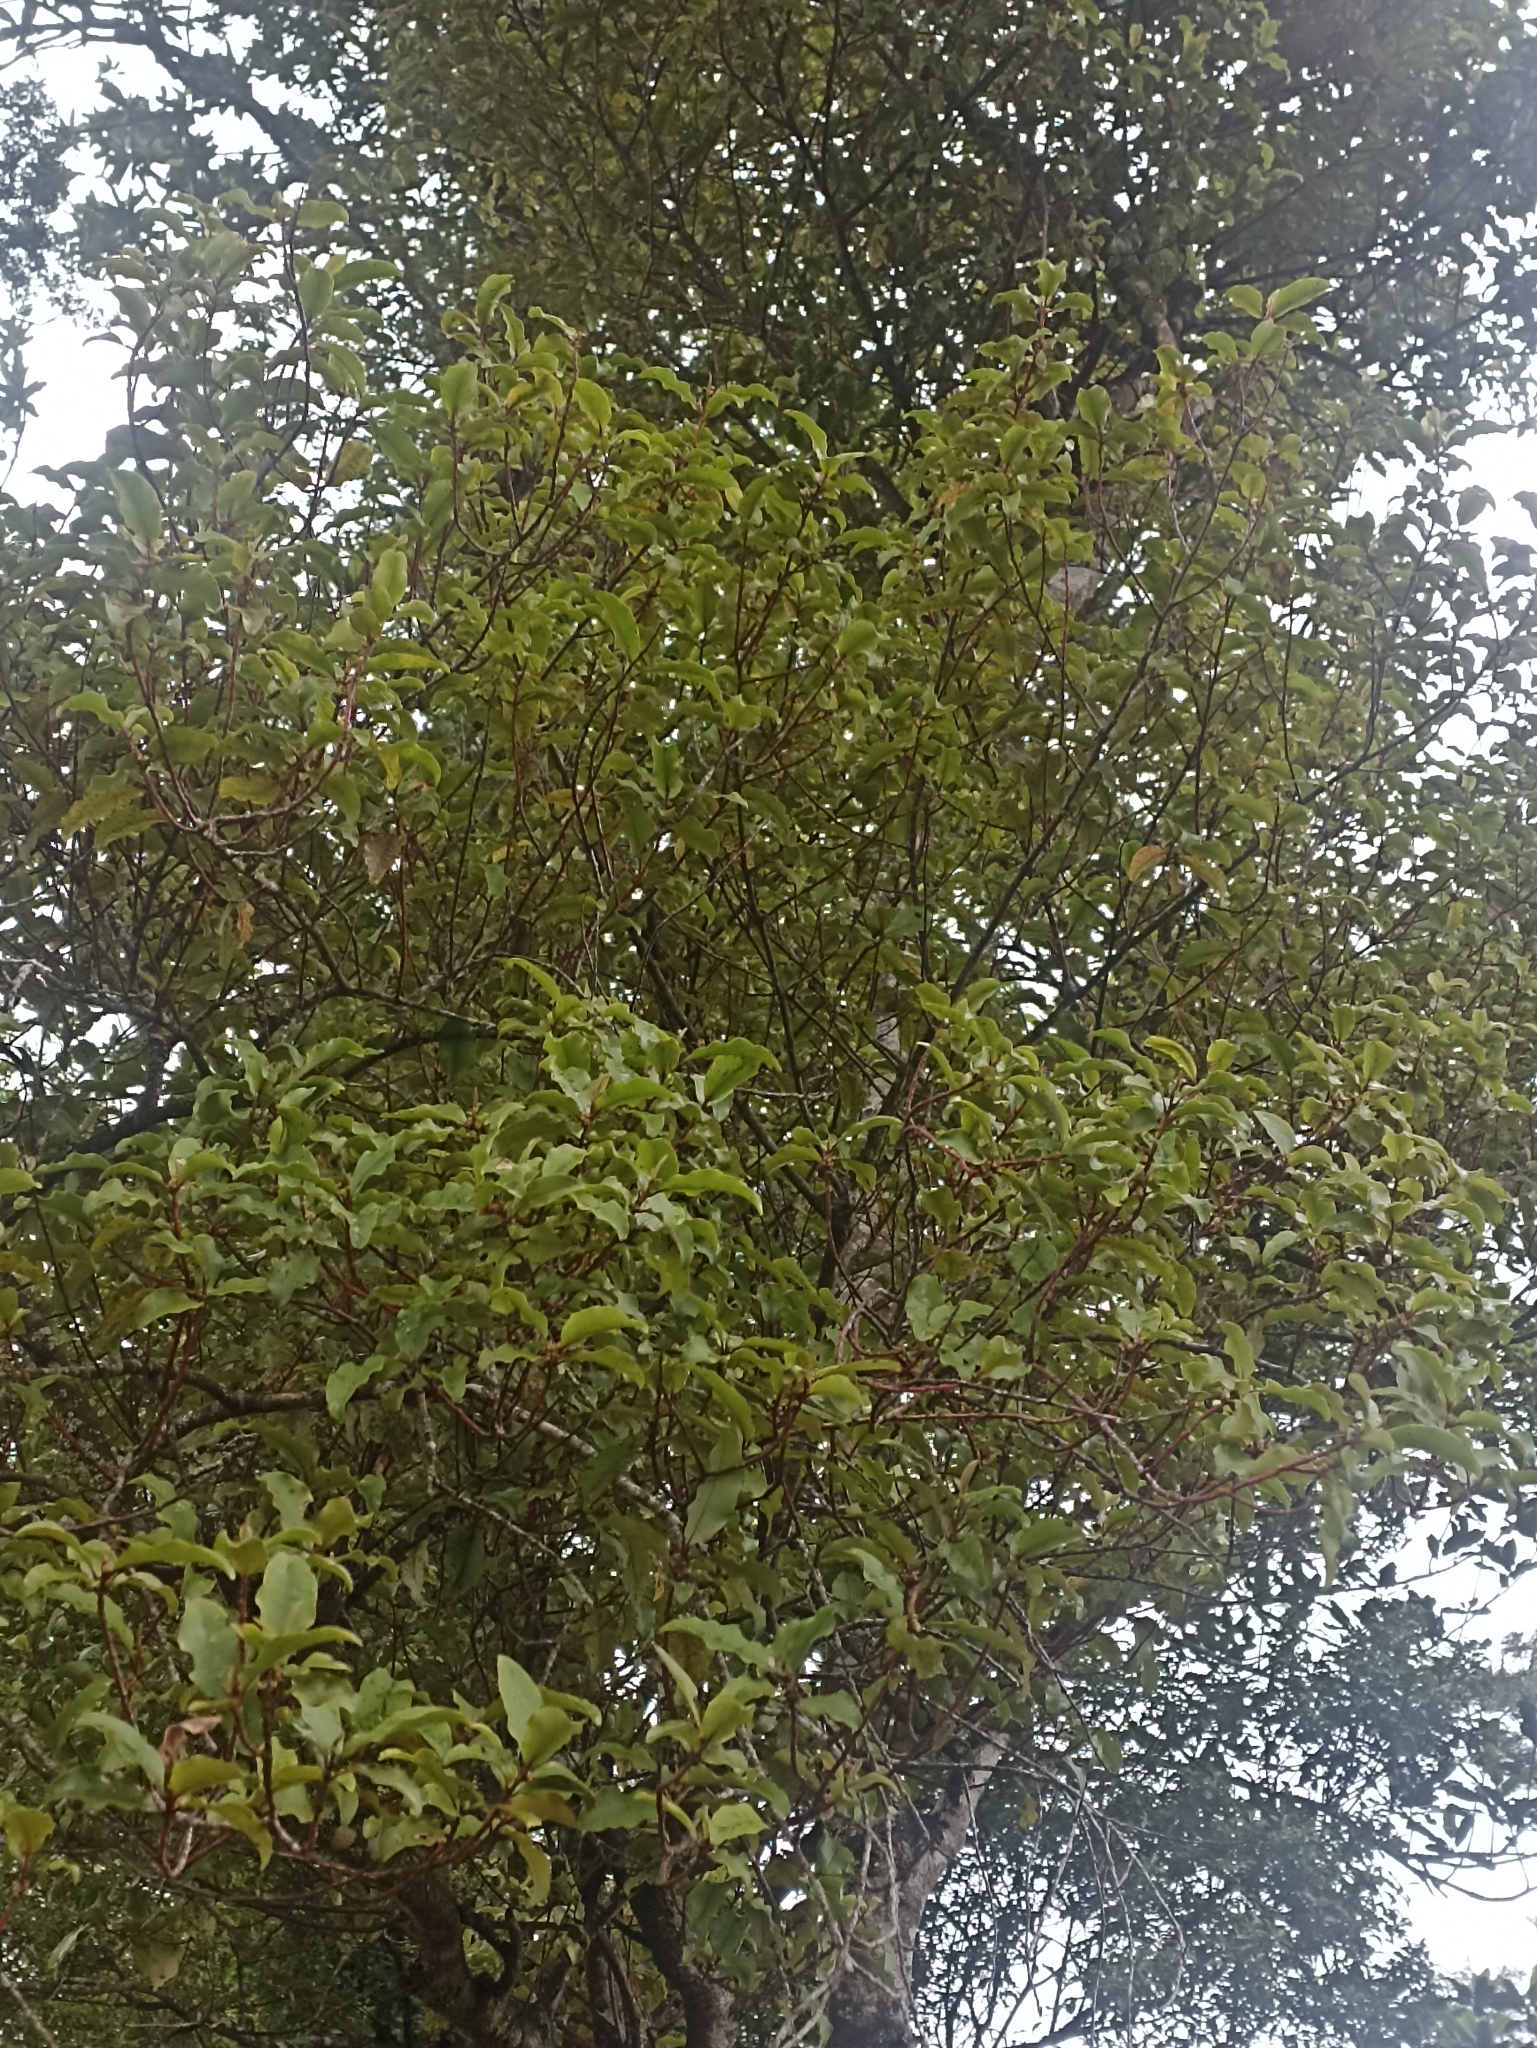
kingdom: Plantae
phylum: Tracheophyta
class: Magnoliopsida
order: Ericales
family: Primulaceae
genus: Myrsine
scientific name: Myrsine australis
